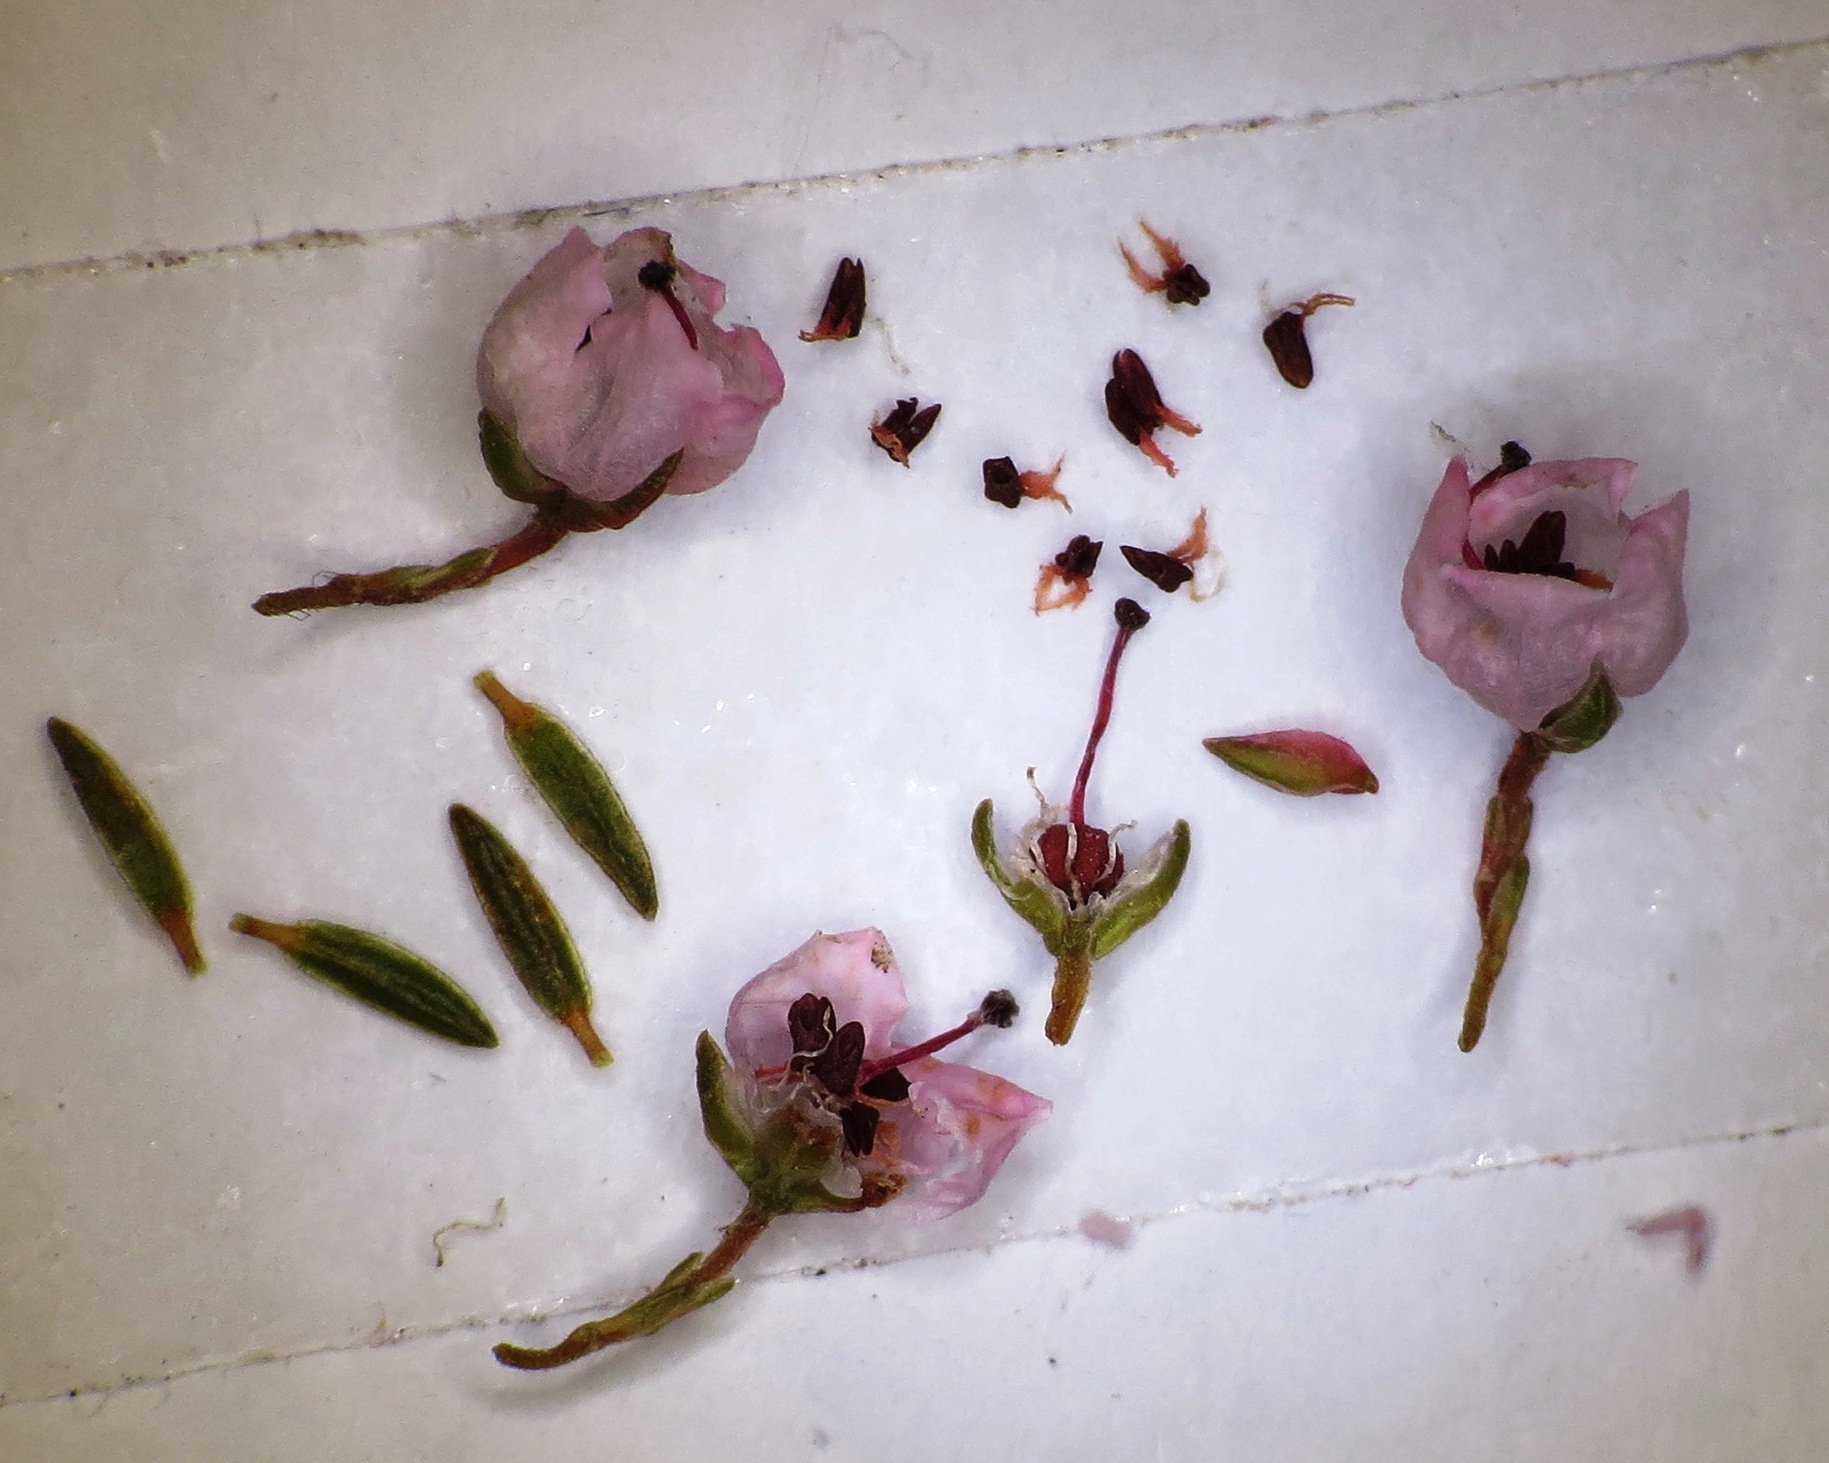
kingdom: Plantae
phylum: Tracheophyta
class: Magnoliopsida
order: Ericales
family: Ericaceae
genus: Erica
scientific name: Erica curvirostris
